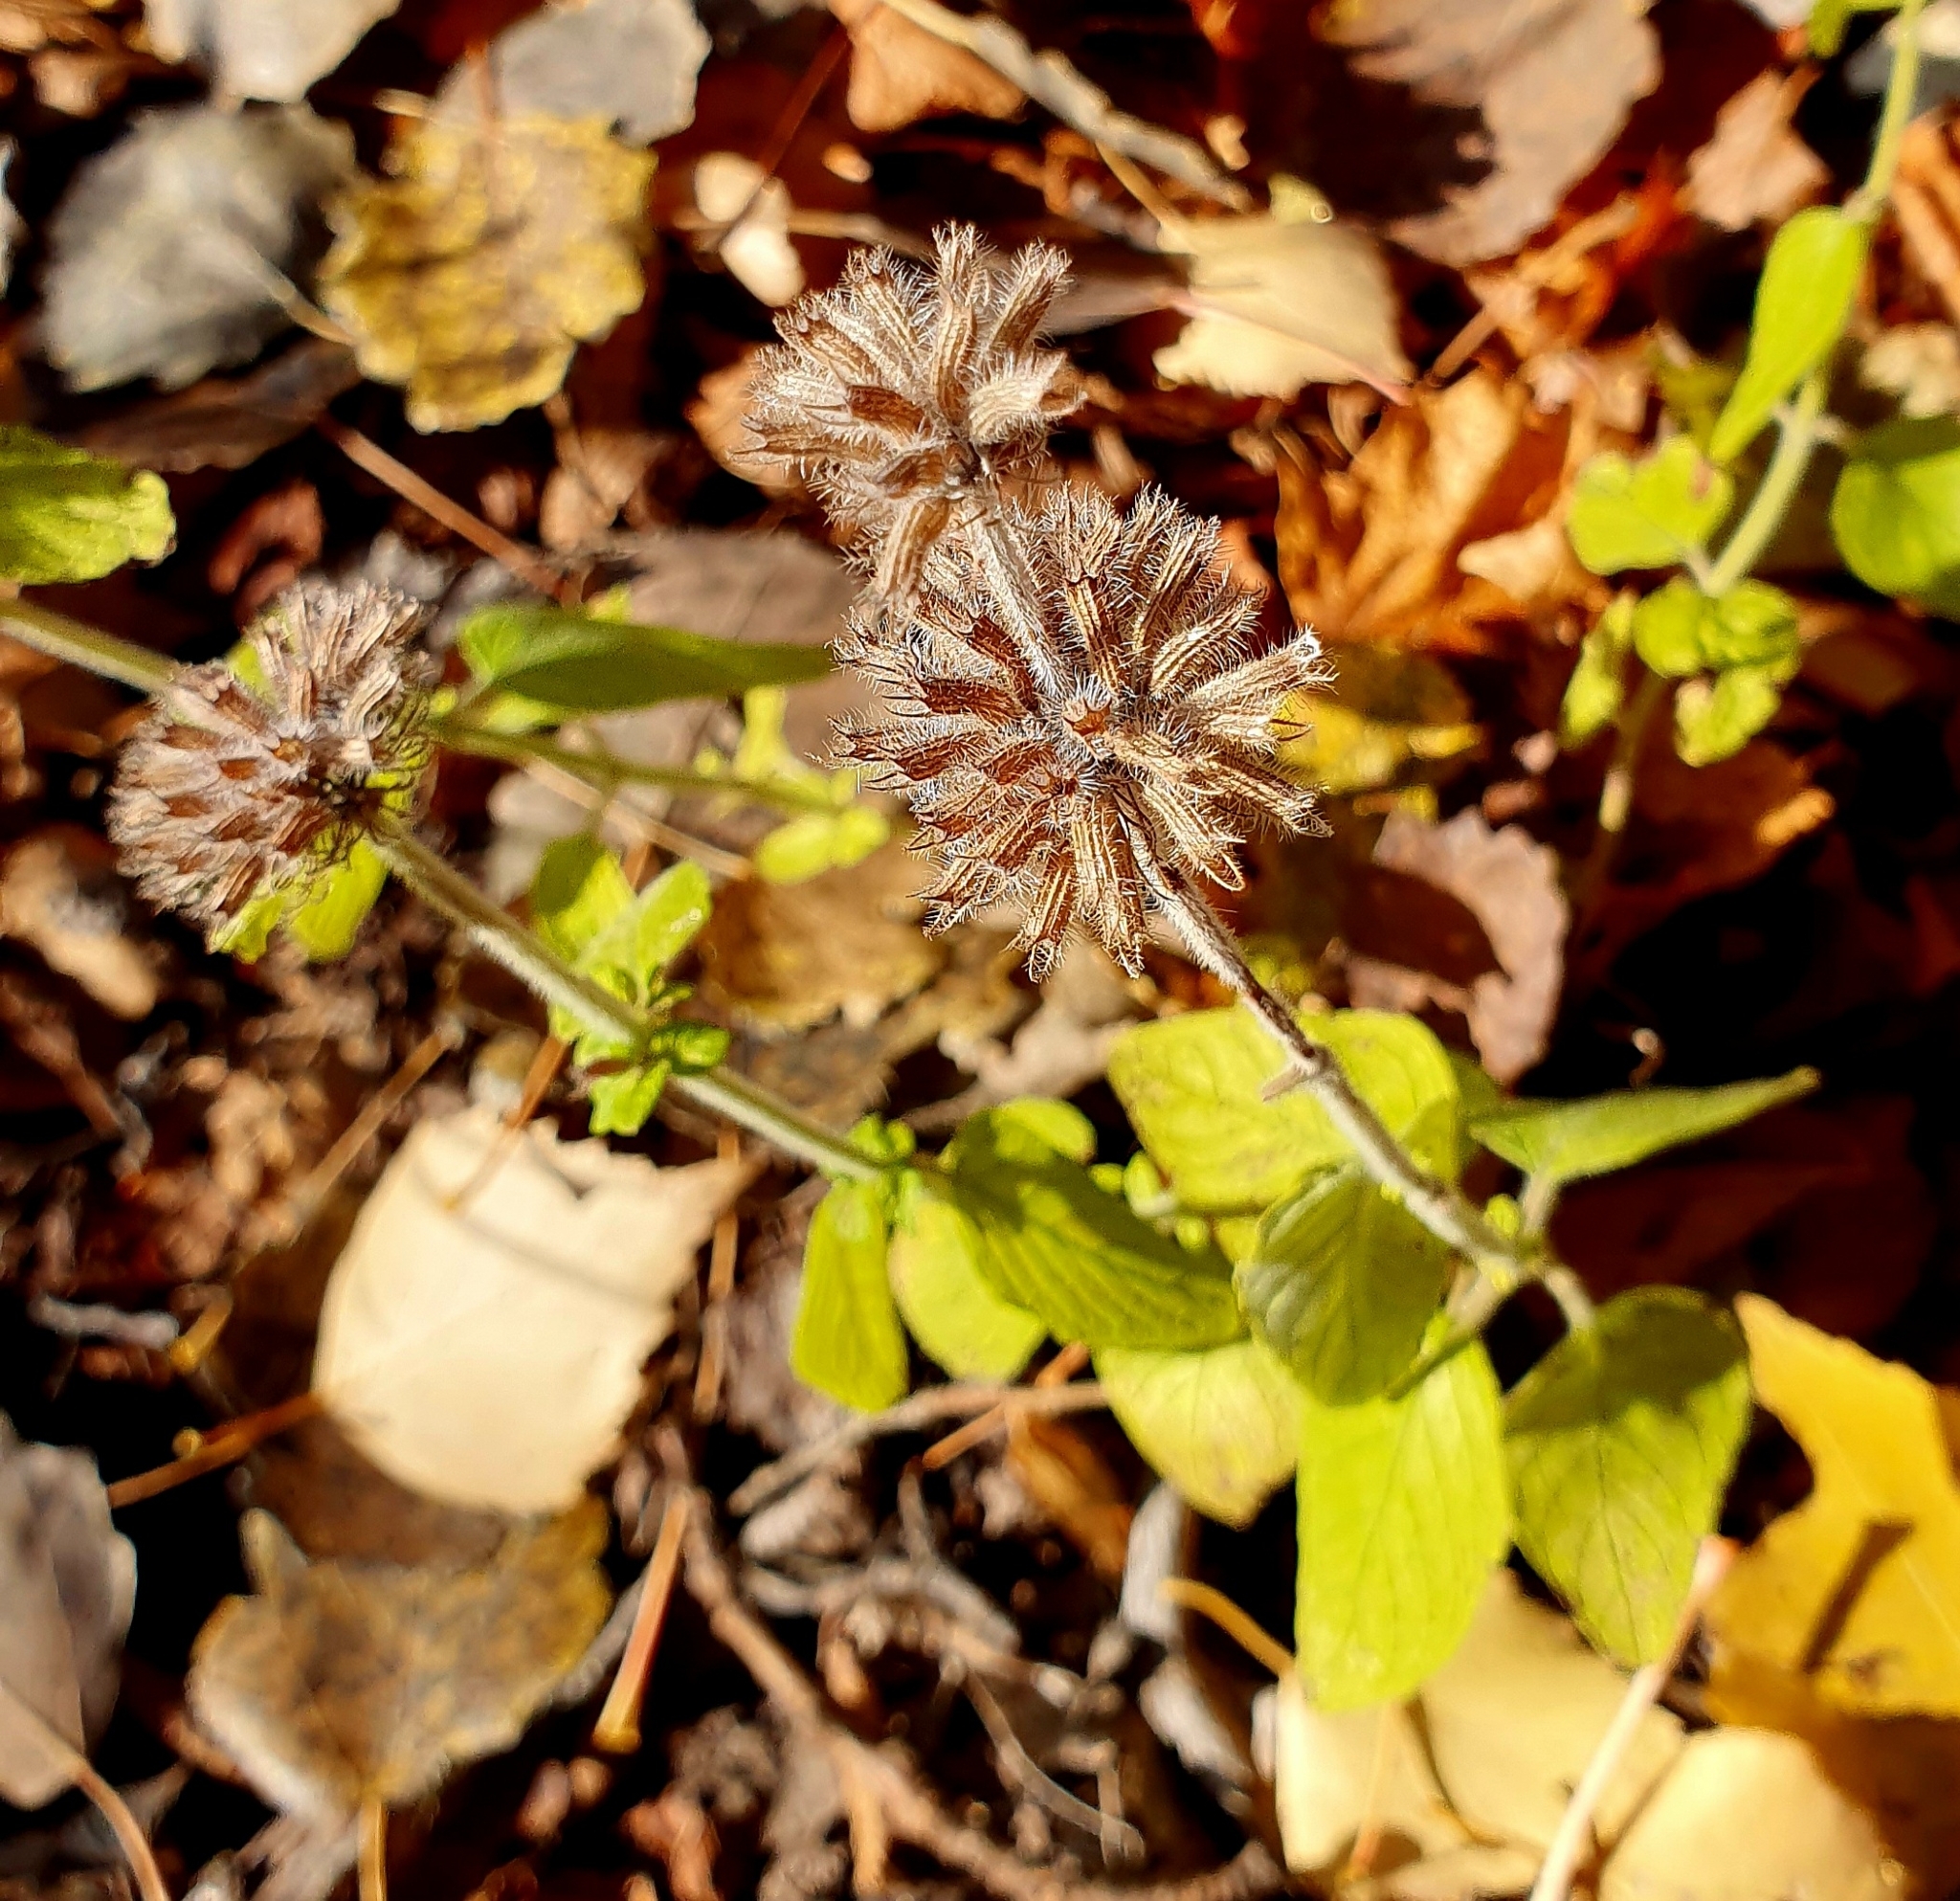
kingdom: Plantae
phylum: Tracheophyta
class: Magnoliopsida
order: Lamiales
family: Lamiaceae
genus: Clinopodium
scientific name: Clinopodium vulgare
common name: Wild basil
